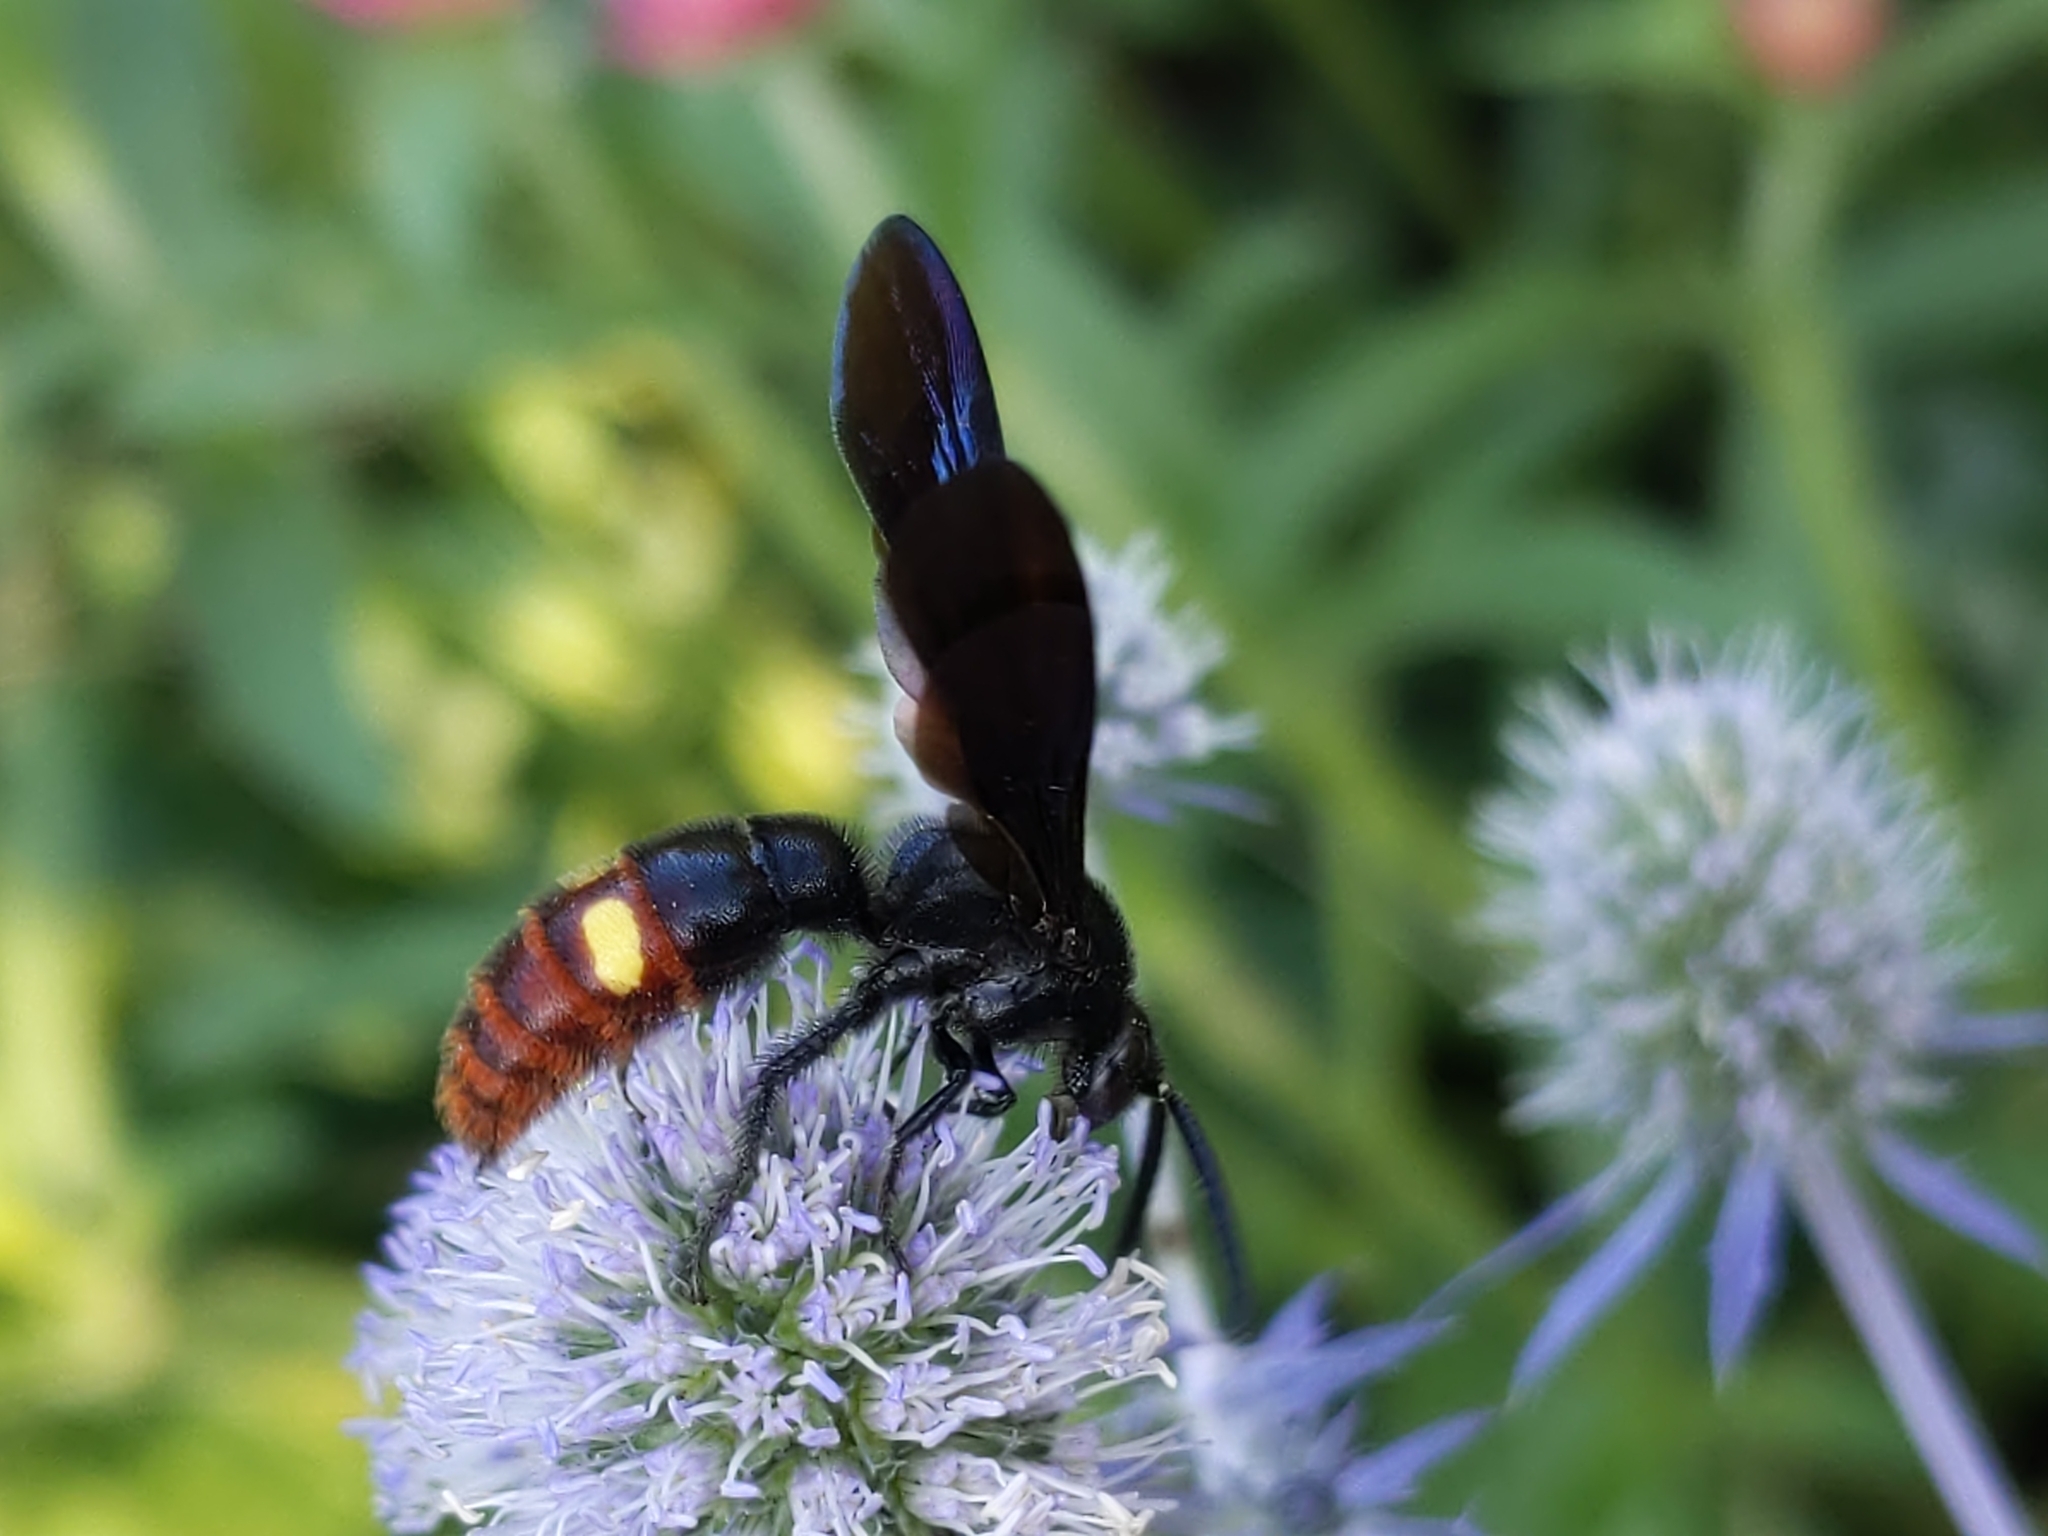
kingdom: Animalia
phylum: Arthropoda
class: Insecta
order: Hymenoptera
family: Scoliidae
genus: Scolia
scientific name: Scolia dubia
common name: Blue-winged scoliid wasp
